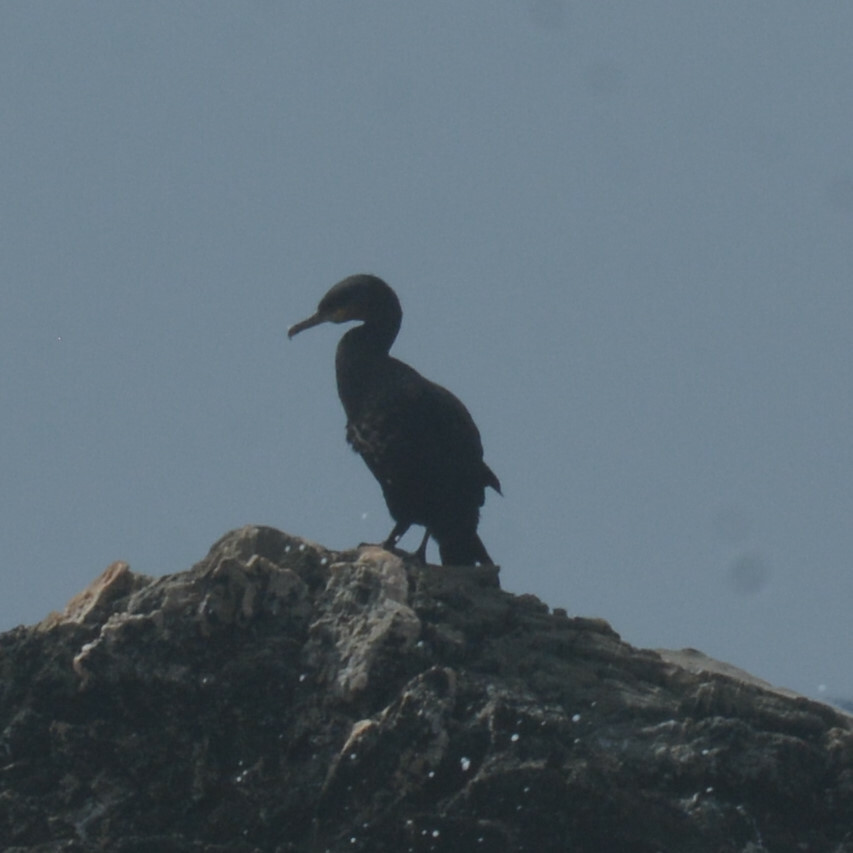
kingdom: Animalia
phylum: Chordata
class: Aves
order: Suliformes
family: Phalacrocoracidae
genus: Phalacrocorax
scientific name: Phalacrocorax aristotelis
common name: European shag
